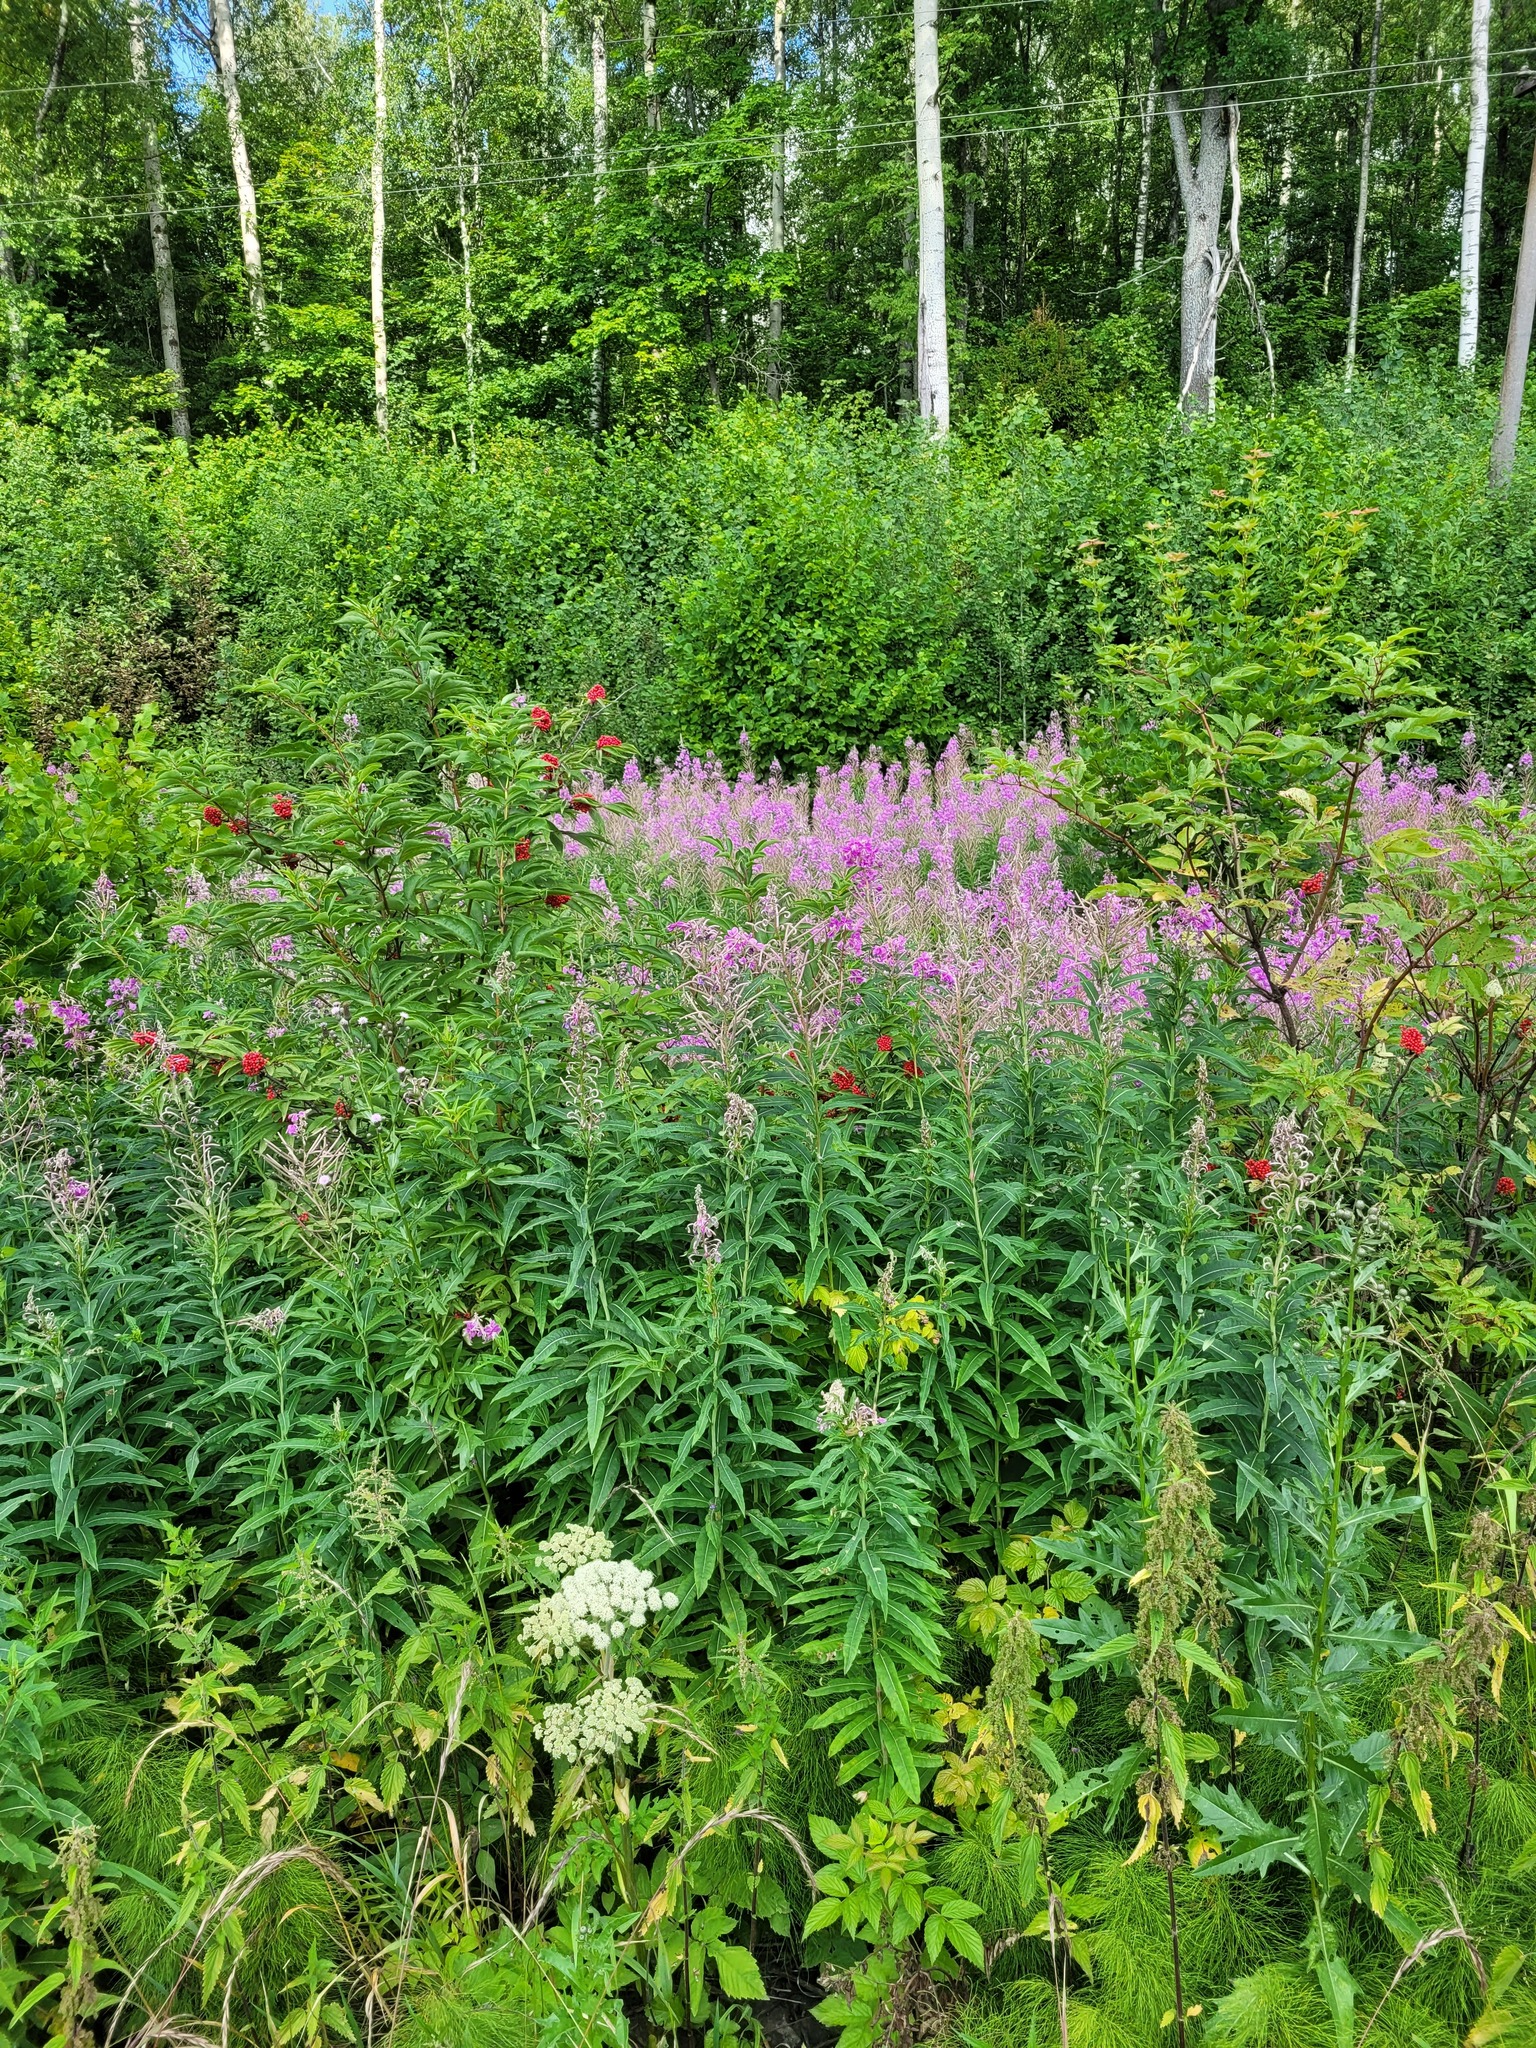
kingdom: Plantae
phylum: Tracheophyta
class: Magnoliopsida
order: Myrtales
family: Onagraceae
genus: Chamaenerion
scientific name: Chamaenerion angustifolium
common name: Fireweed
